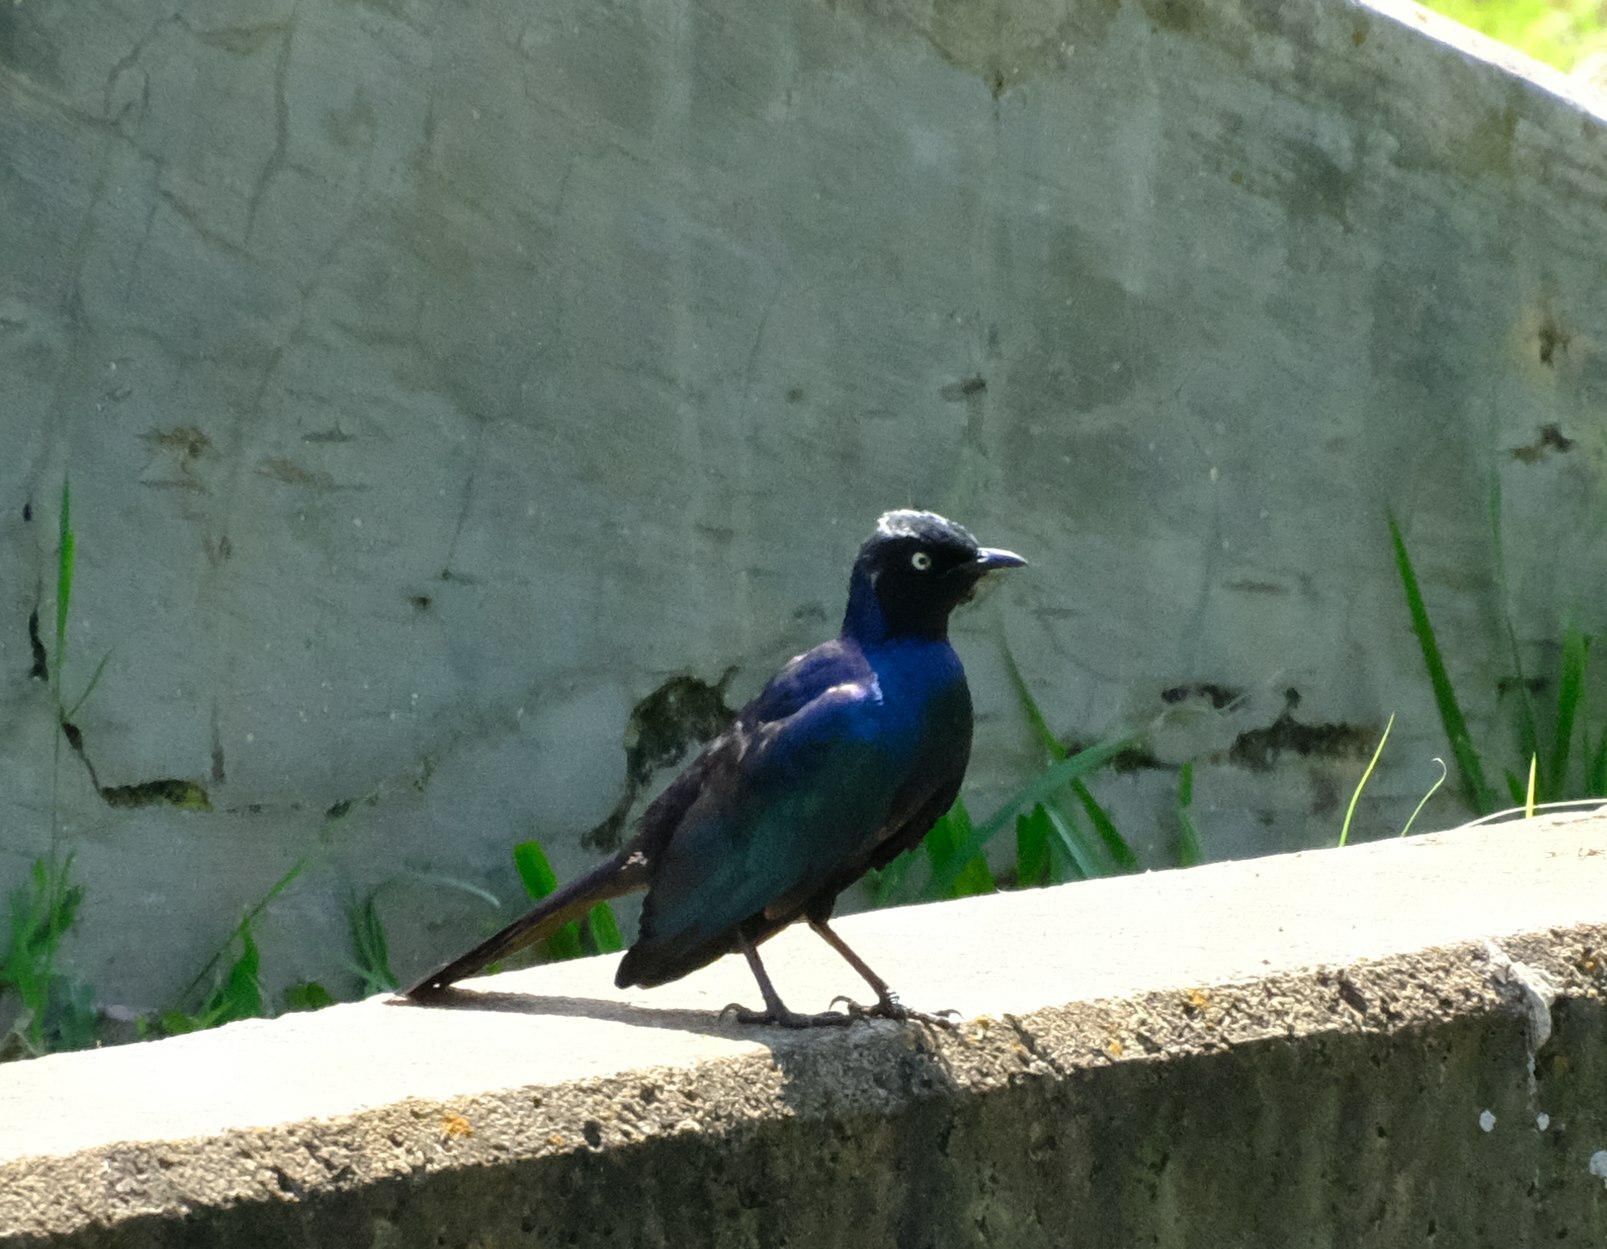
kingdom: Animalia
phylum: Chordata
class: Aves
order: Passeriformes
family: Sturnidae
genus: Lamprotornis
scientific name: Lamprotornis purpuroptera
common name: Rüppell's starling
